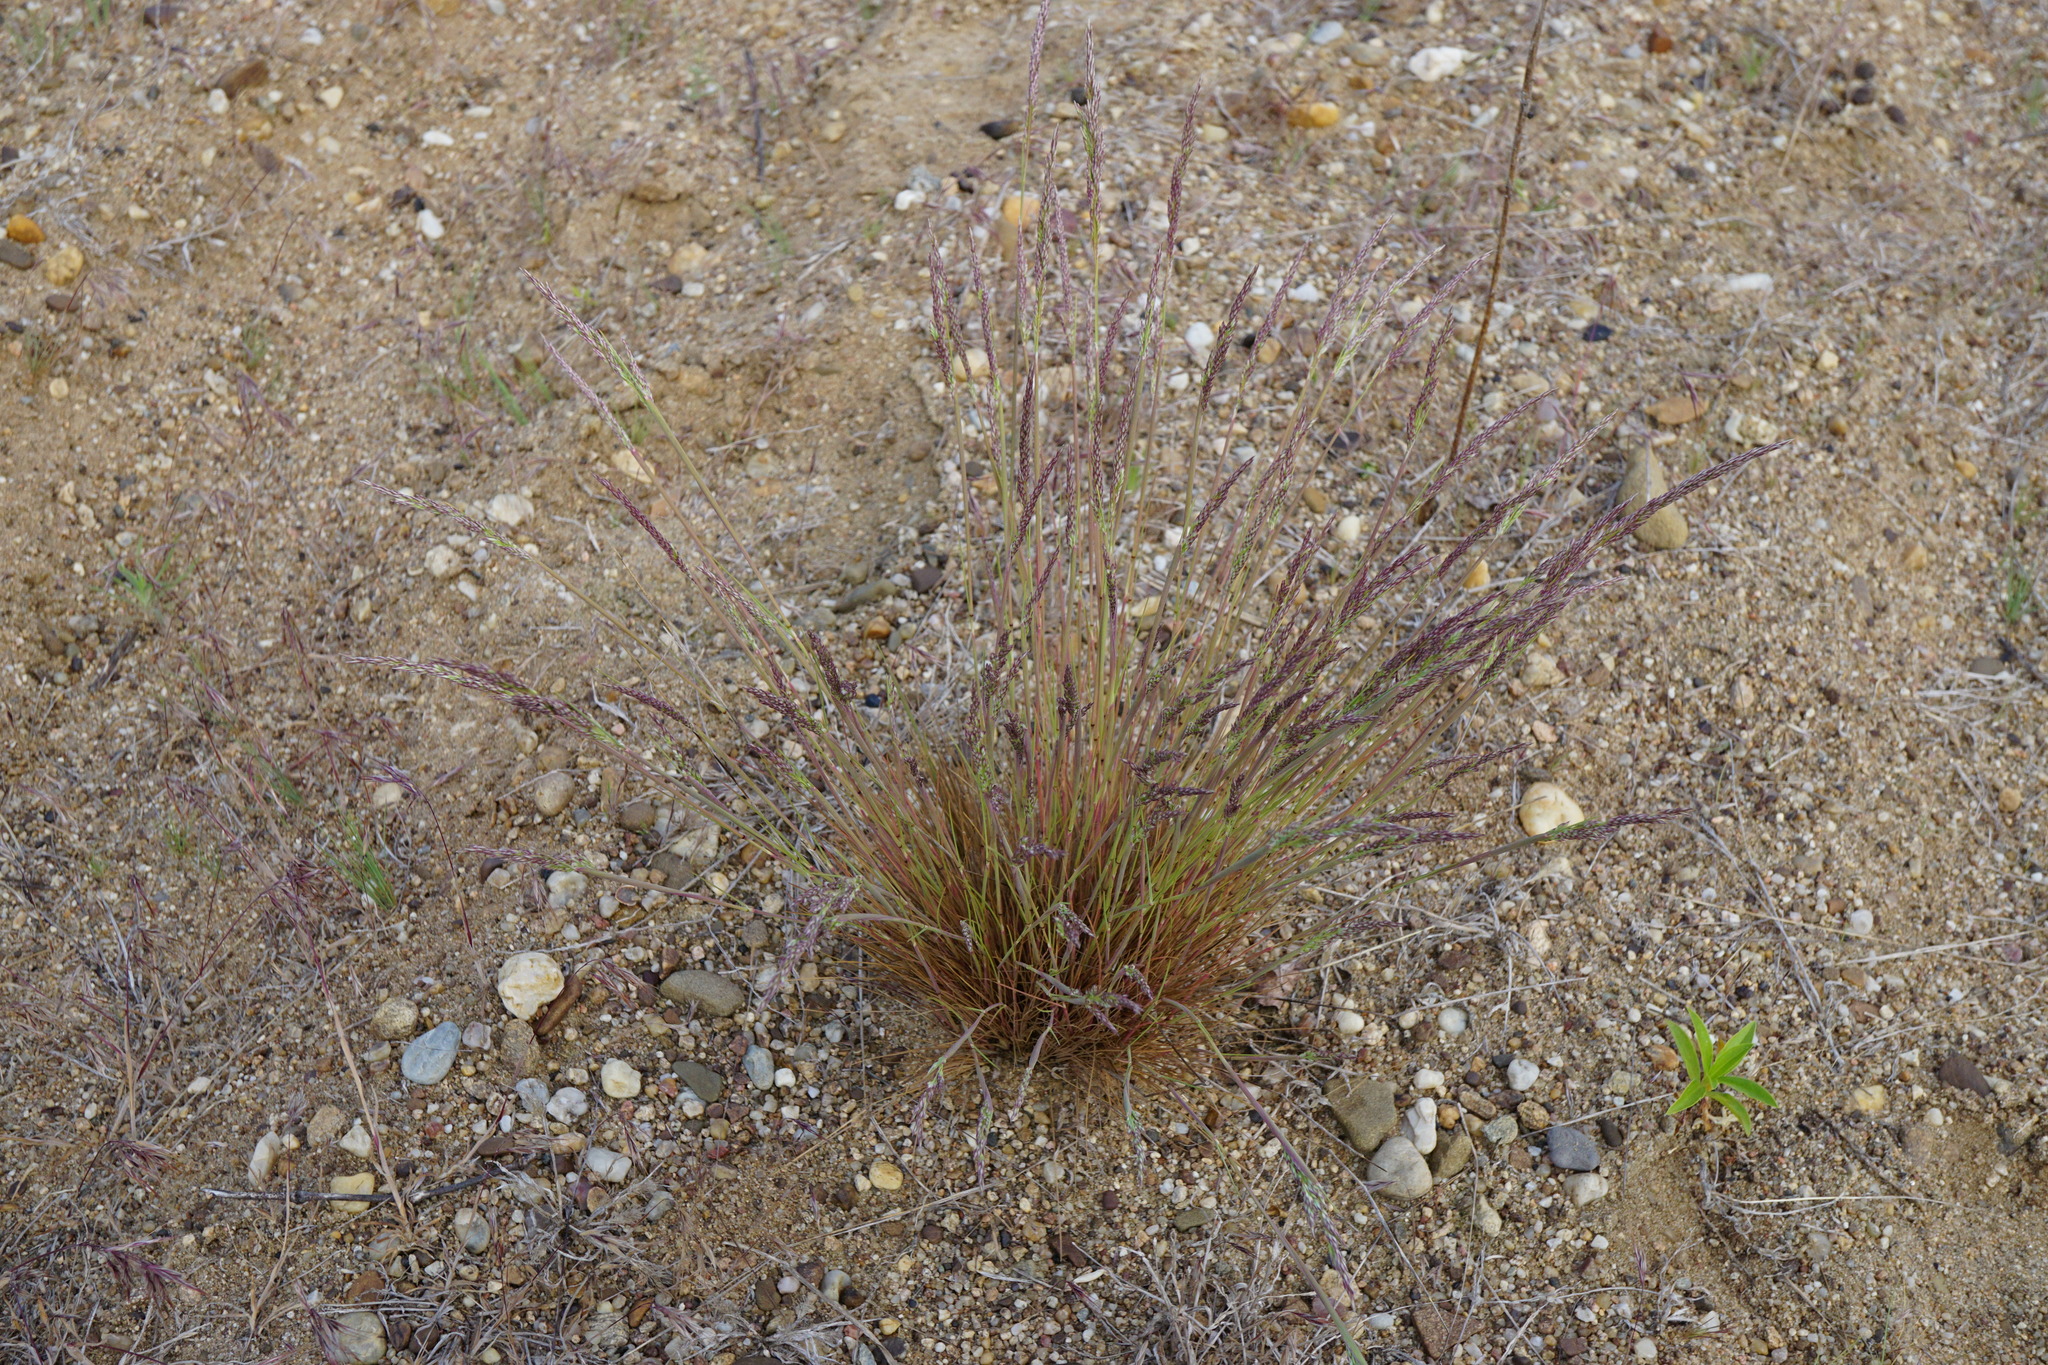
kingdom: Plantae
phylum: Tracheophyta
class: Liliopsida
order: Poales
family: Poaceae
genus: Corynephorus
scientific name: Corynephorus canescens
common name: Grey hair-grass
